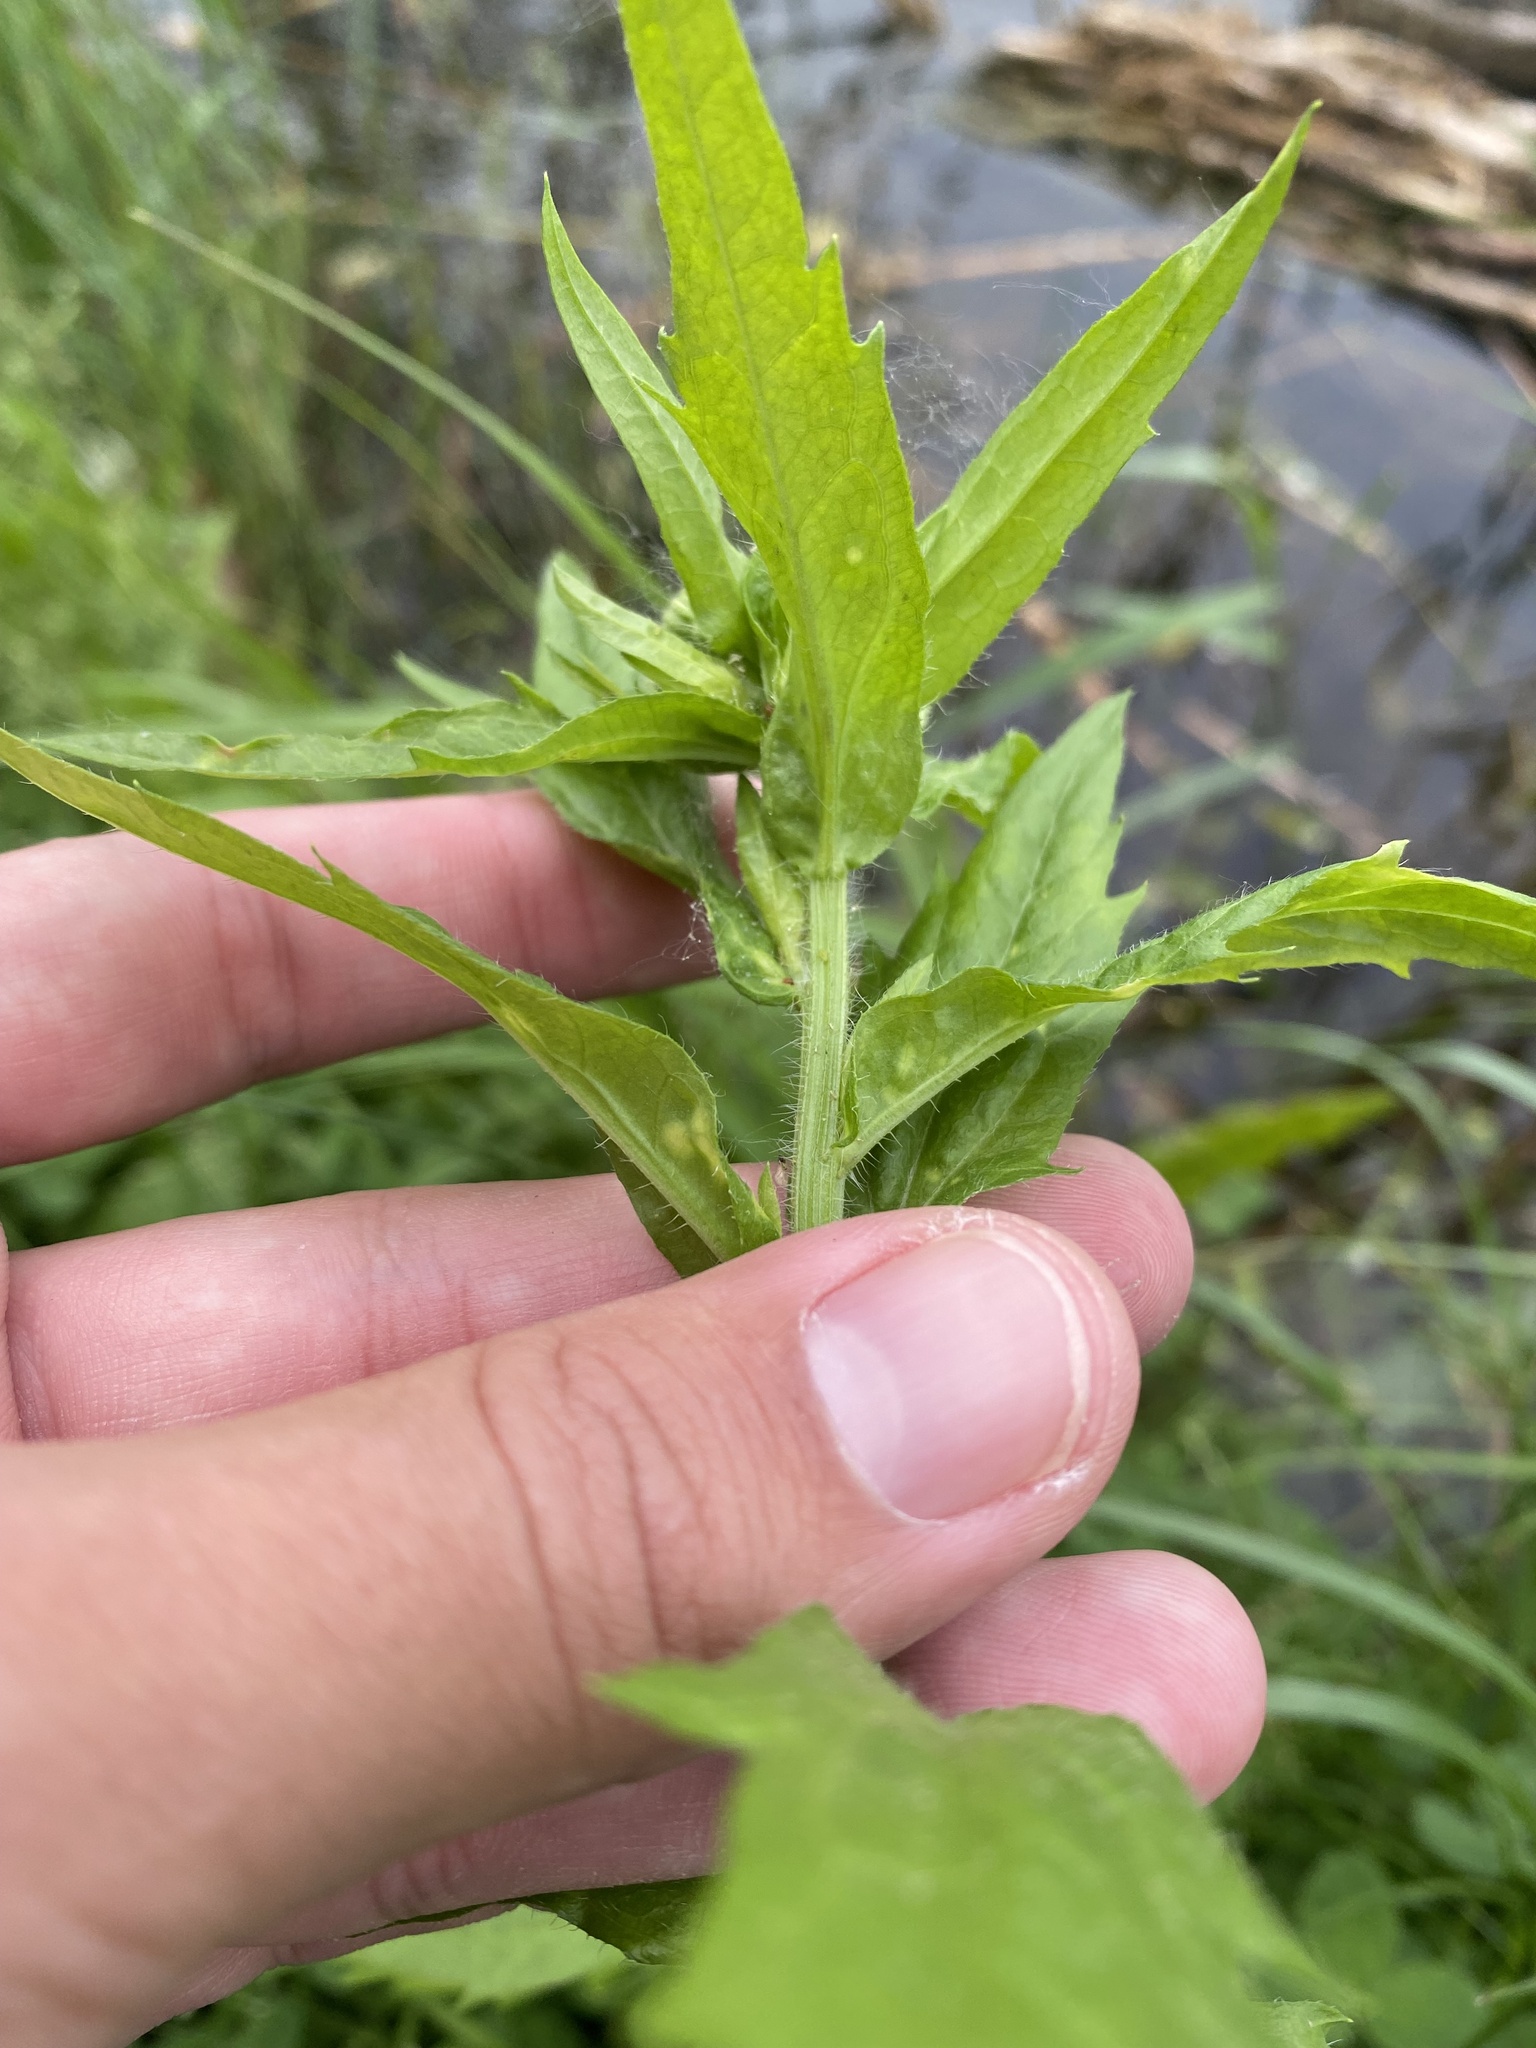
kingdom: Plantae
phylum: Tracheophyta
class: Magnoliopsida
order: Asterales
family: Asteraceae
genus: Erigeron
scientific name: Erigeron annuus
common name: Tall fleabane
